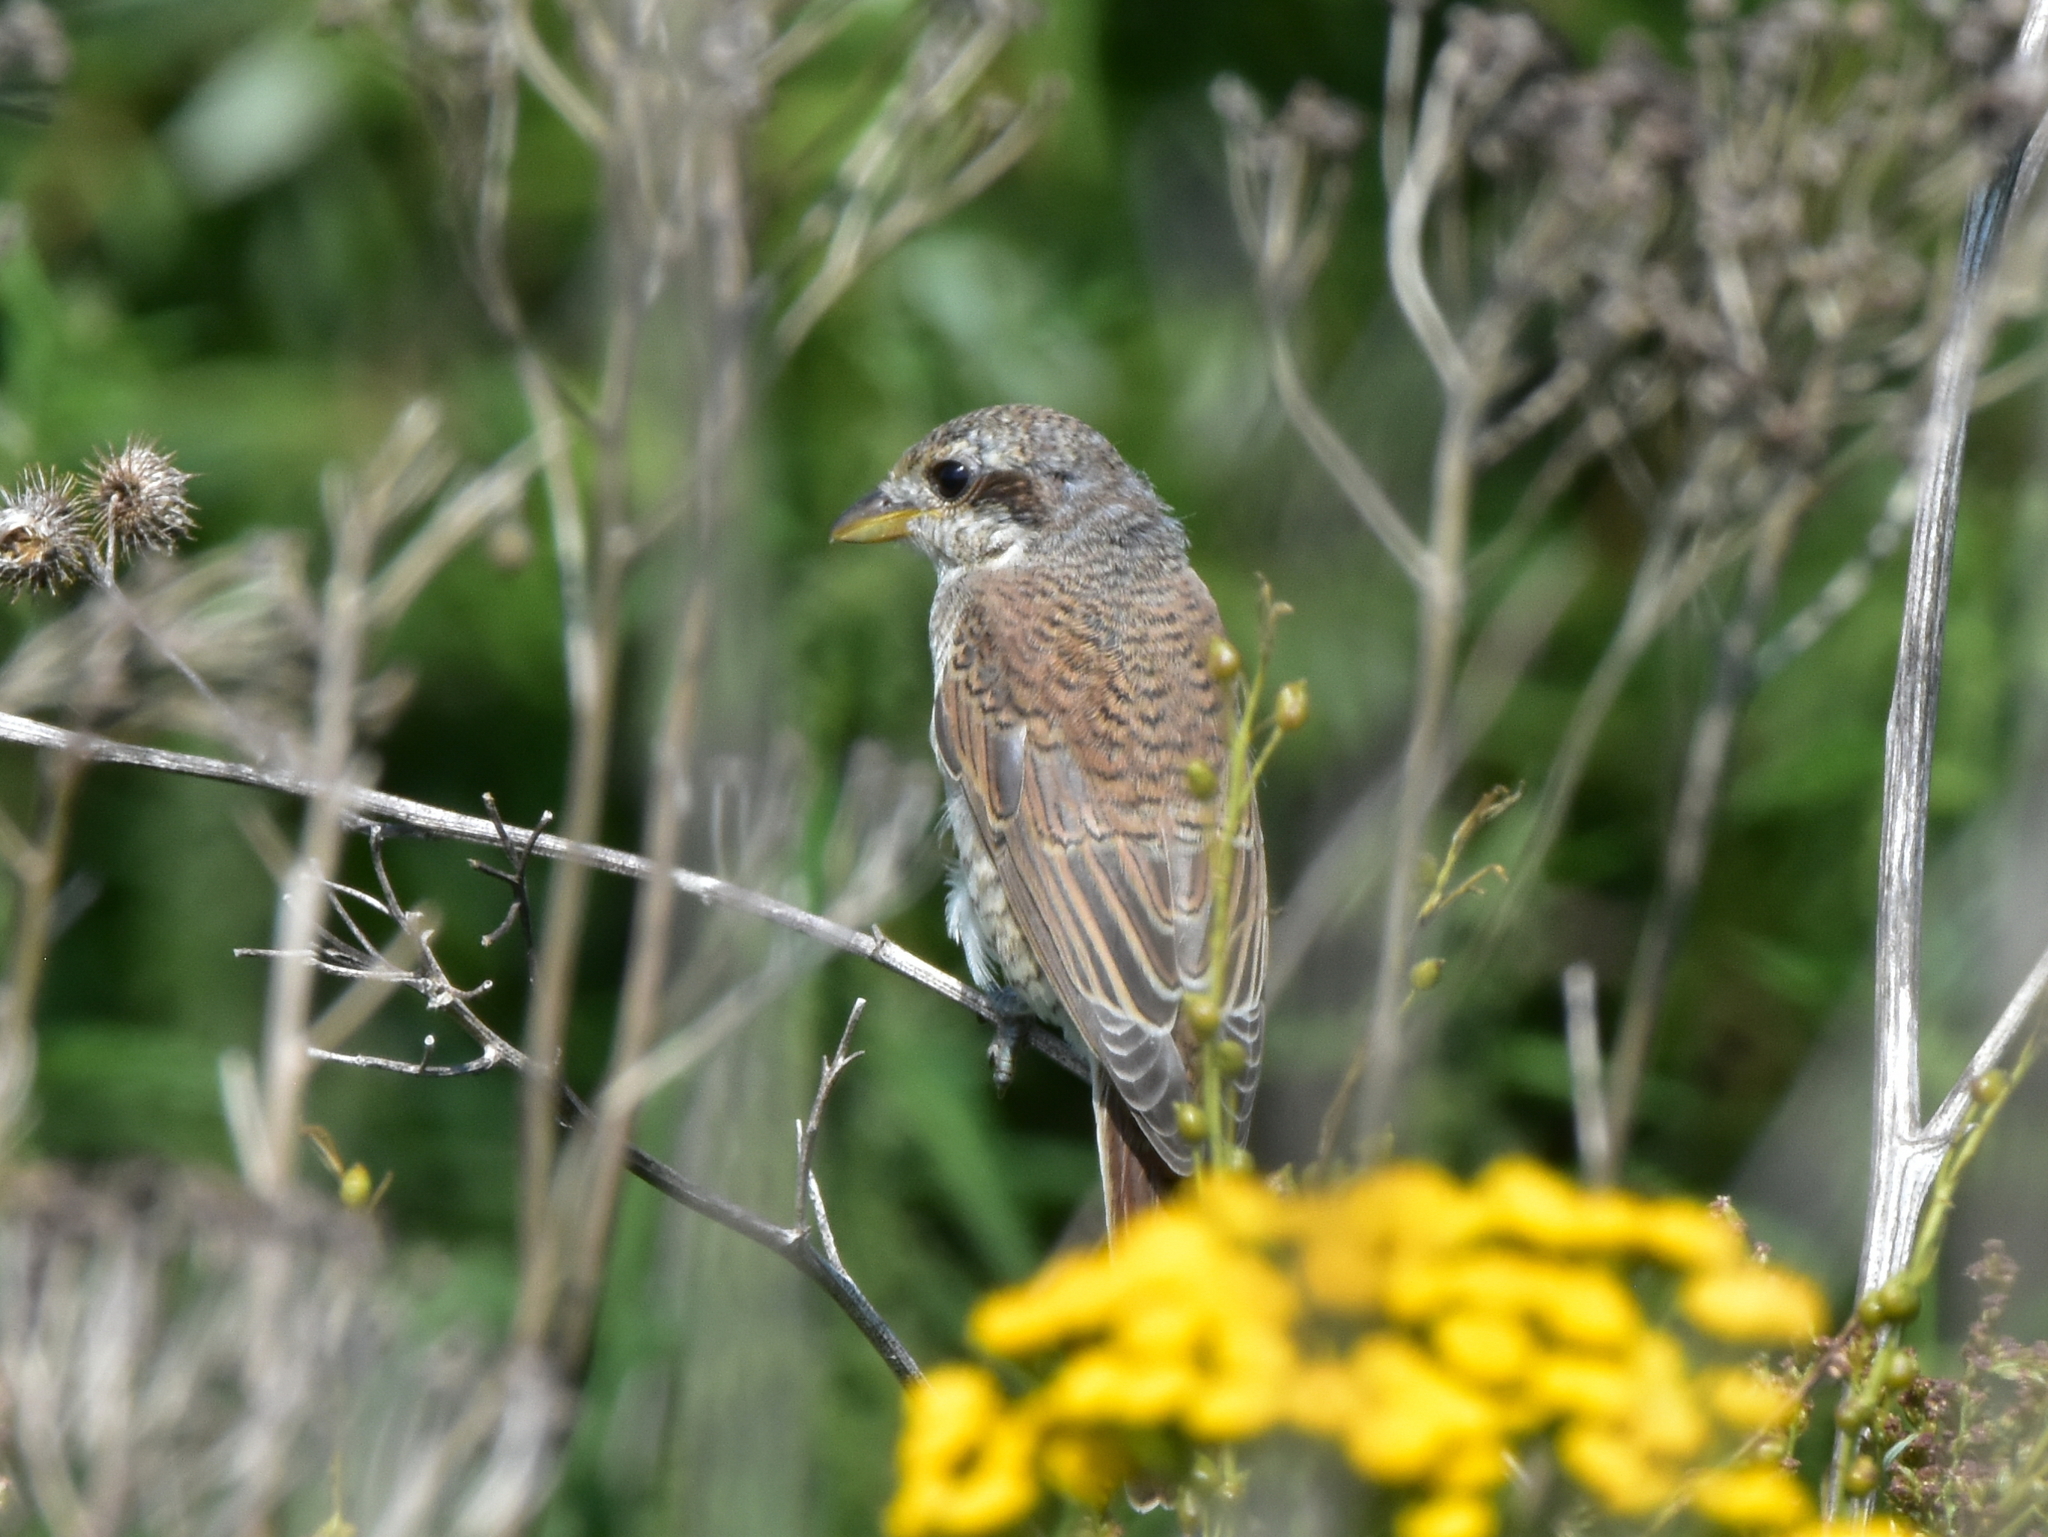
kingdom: Animalia
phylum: Chordata
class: Aves
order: Passeriformes
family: Laniidae
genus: Lanius
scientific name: Lanius collurio
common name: Red-backed shrike
